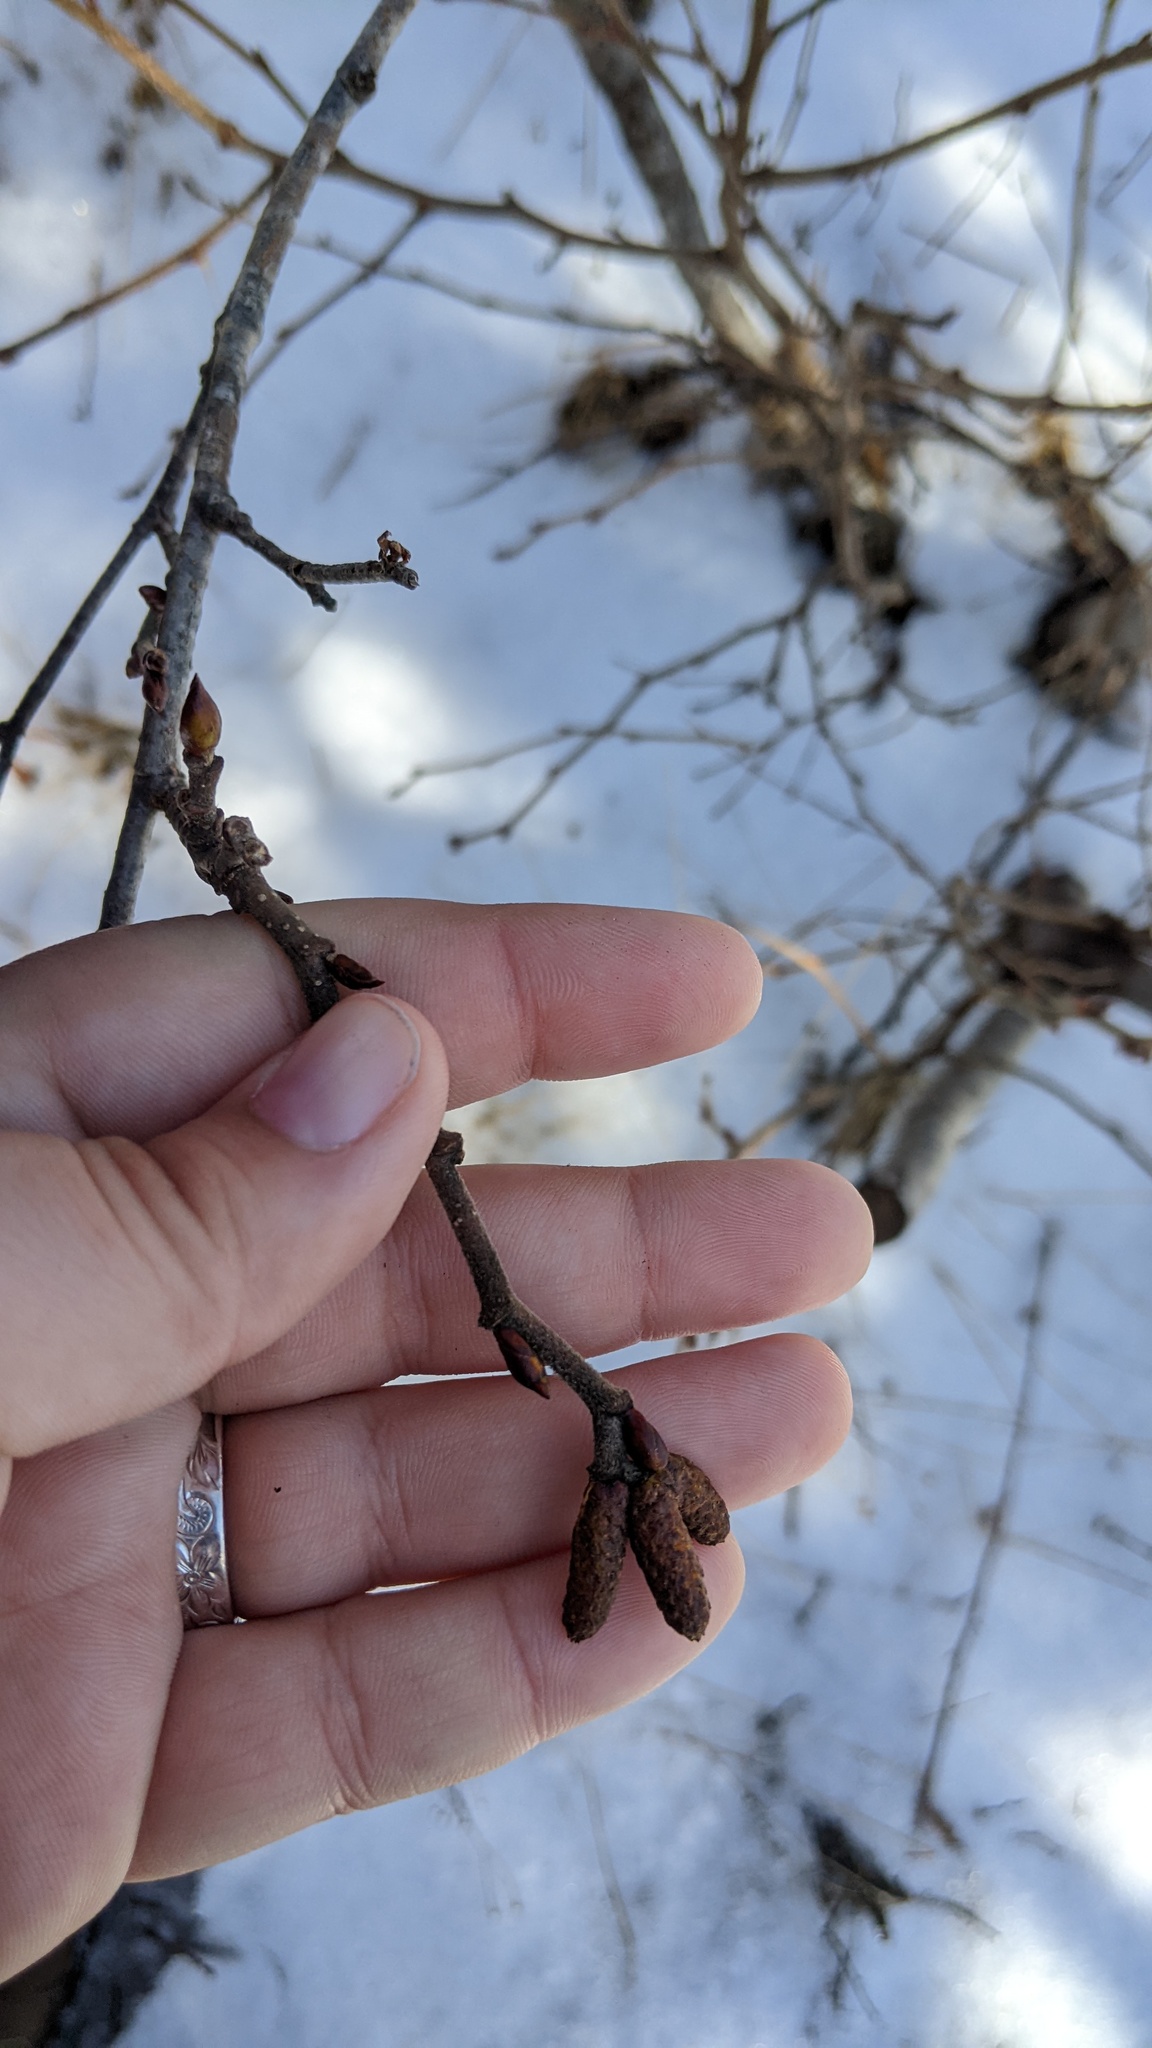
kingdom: Plantae
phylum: Tracheophyta
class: Magnoliopsida
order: Fagales
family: Betulaceae
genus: Alnus
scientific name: Alnus incana
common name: Grey alder
